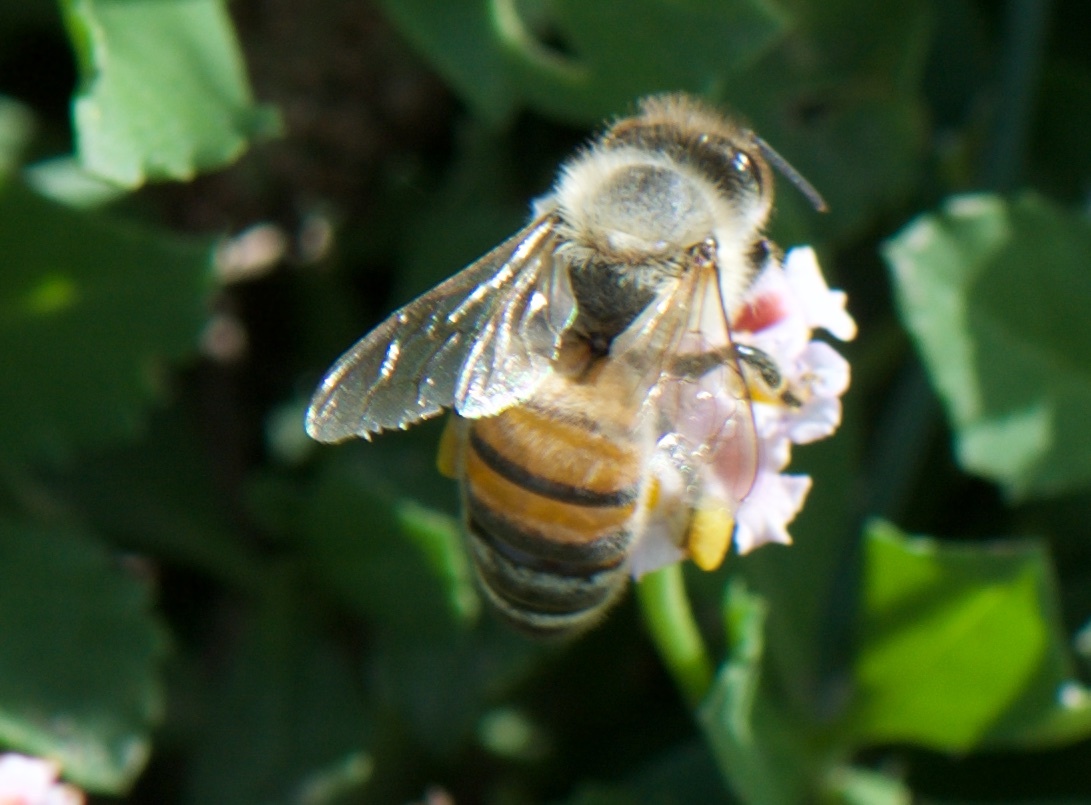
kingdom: Animalia
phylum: Arthropoda
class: Insecta
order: Hymenoptera
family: Apidae
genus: Apis
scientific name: Apis mellifera
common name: Honey bee
